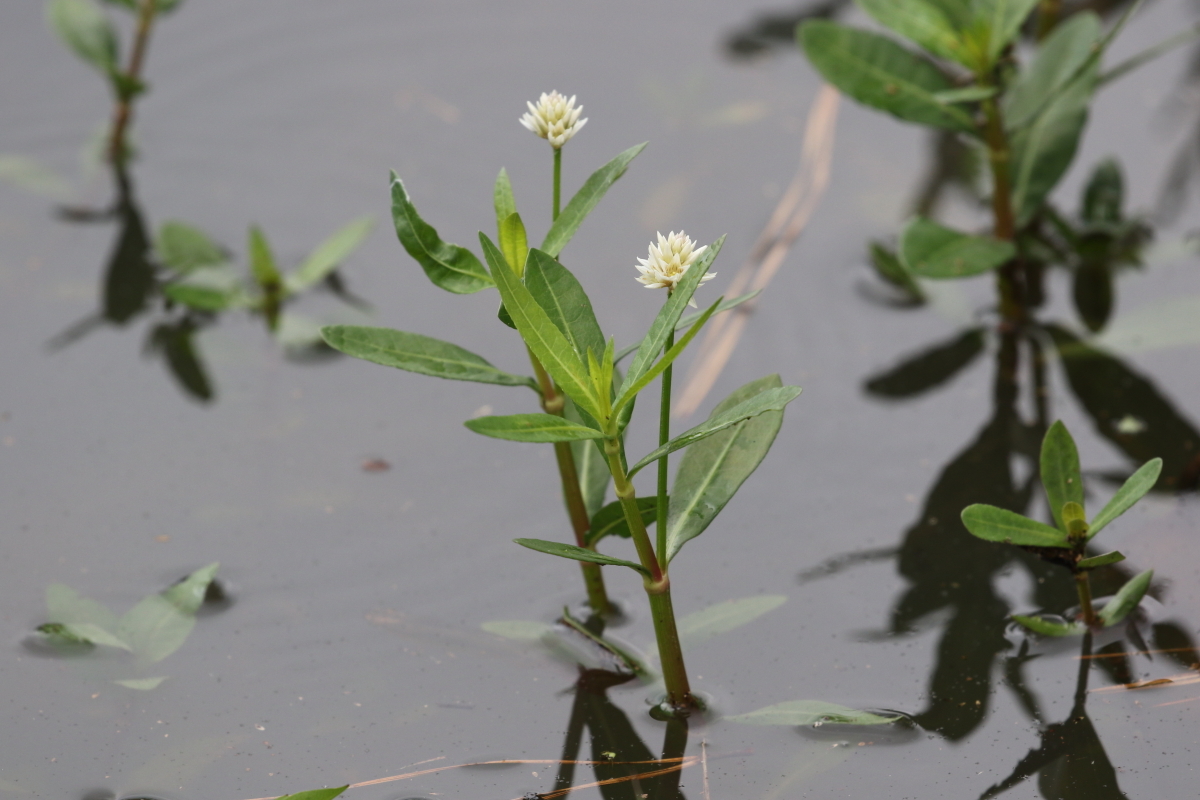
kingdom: Plantae
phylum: Tracheophyta
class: Magnoliopsida
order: Caryophyllales
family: Amaranthaceae
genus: Alternanthera
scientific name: Alternanthera philoxeroides
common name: Alligatorweed
